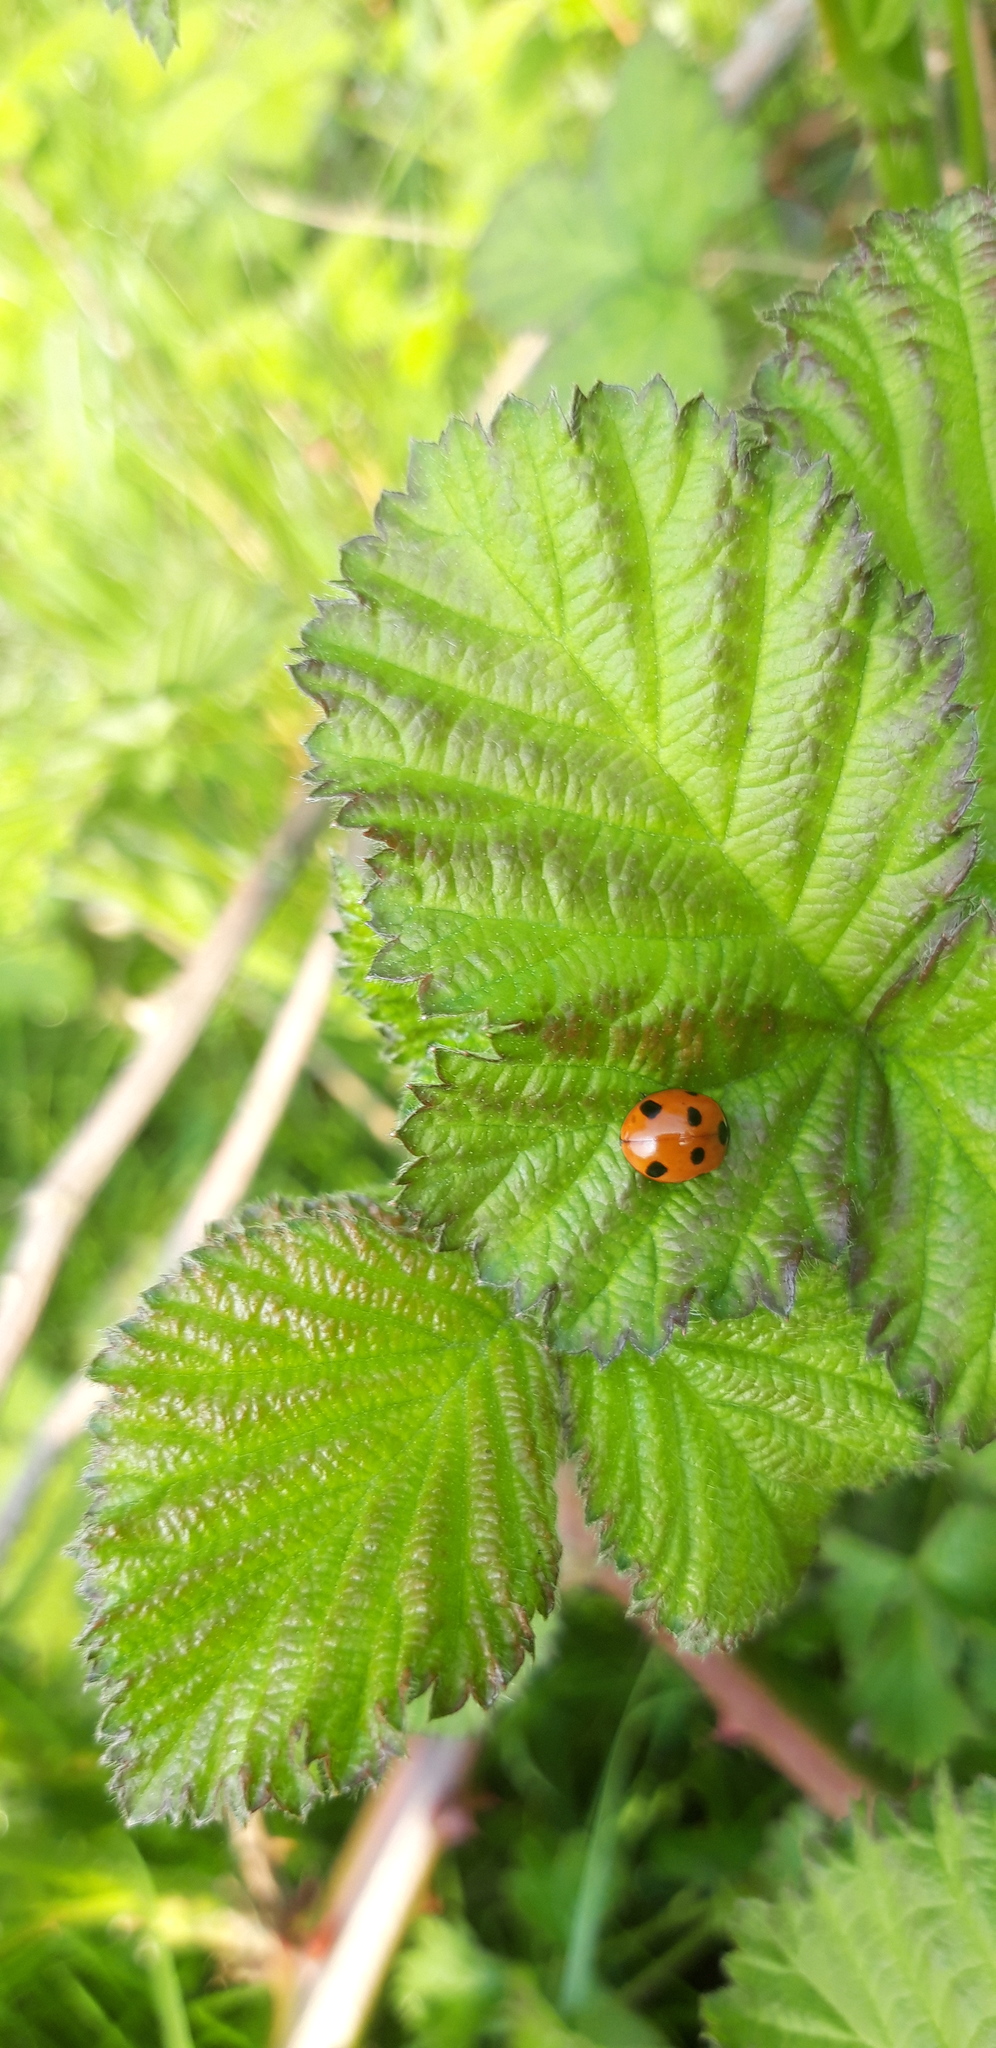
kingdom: Animalia
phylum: Arthropoda
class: Insecta
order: Coleoptera
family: Coccinellidae
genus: Coccinella
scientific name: Coccinella septempunctata
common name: Sevenspotted lady beetle
